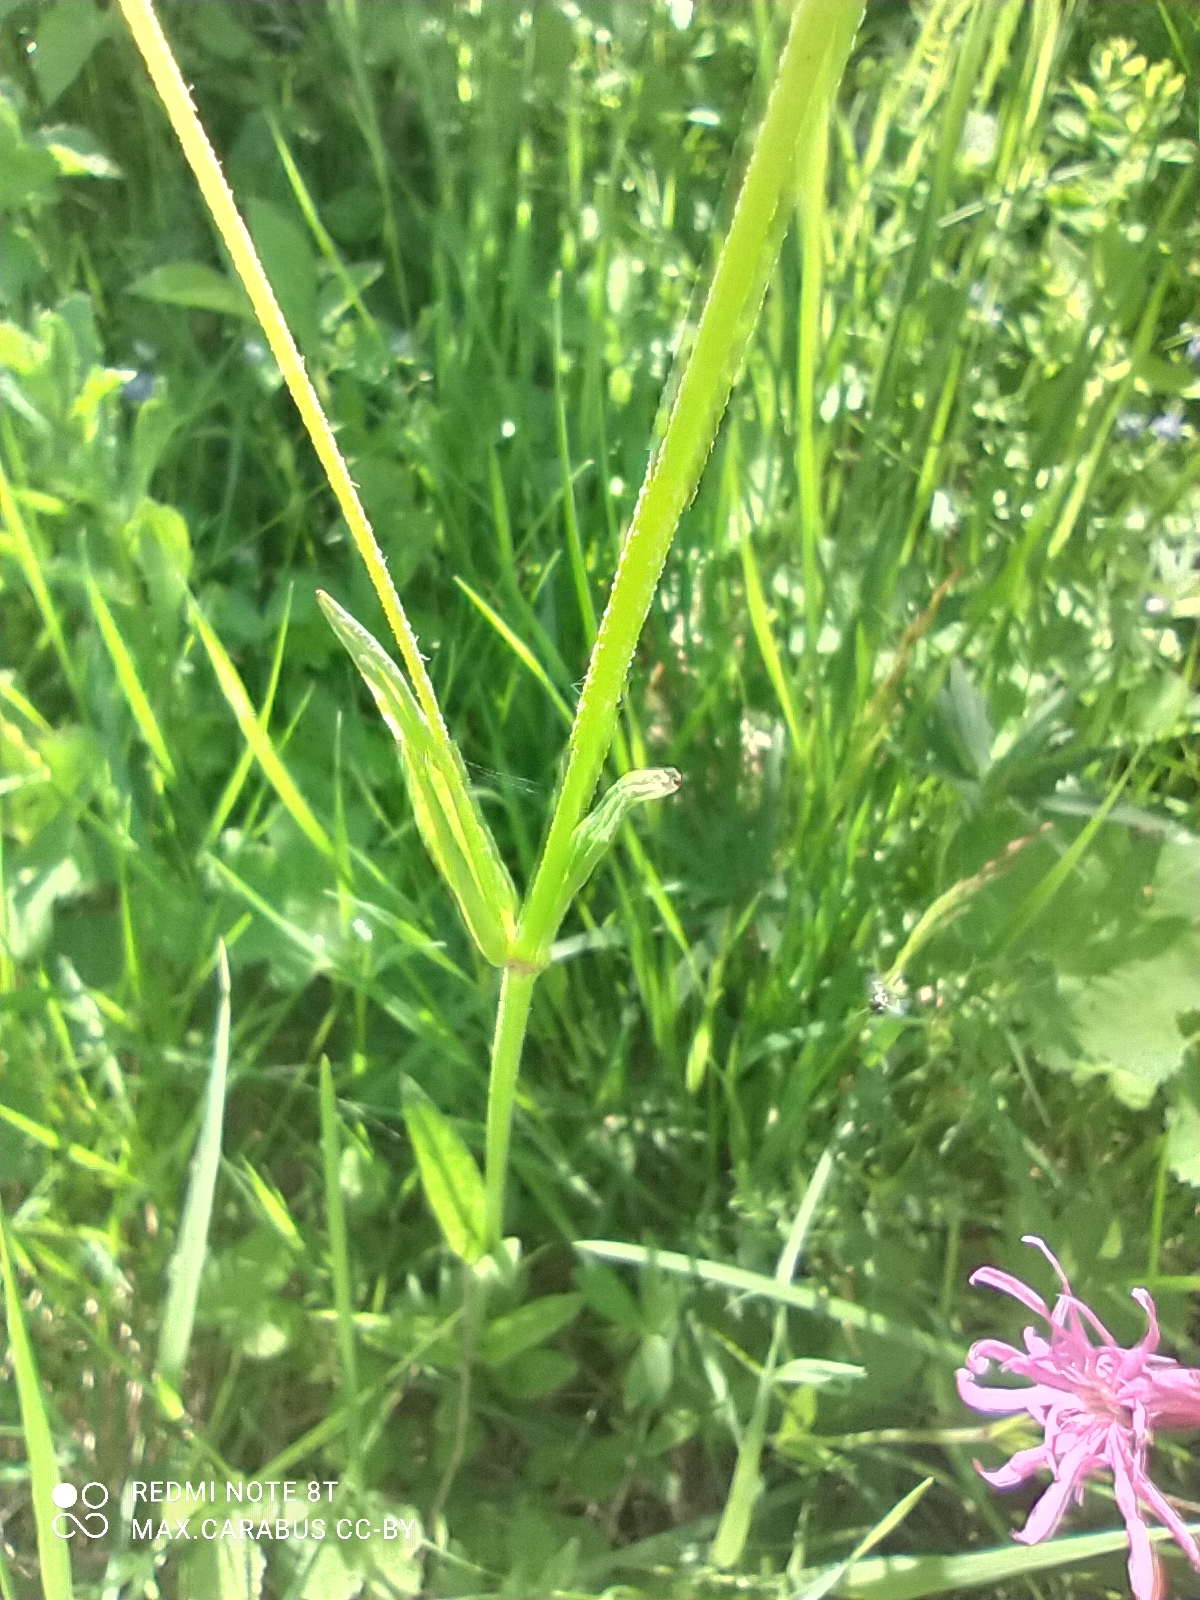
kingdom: Plantae
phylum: Tracheophyta
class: Magnoliopsida
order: Caryophyllales
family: Caryophyllaceae
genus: Silene
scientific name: Silene flos-cuculi
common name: Ragged-robin
